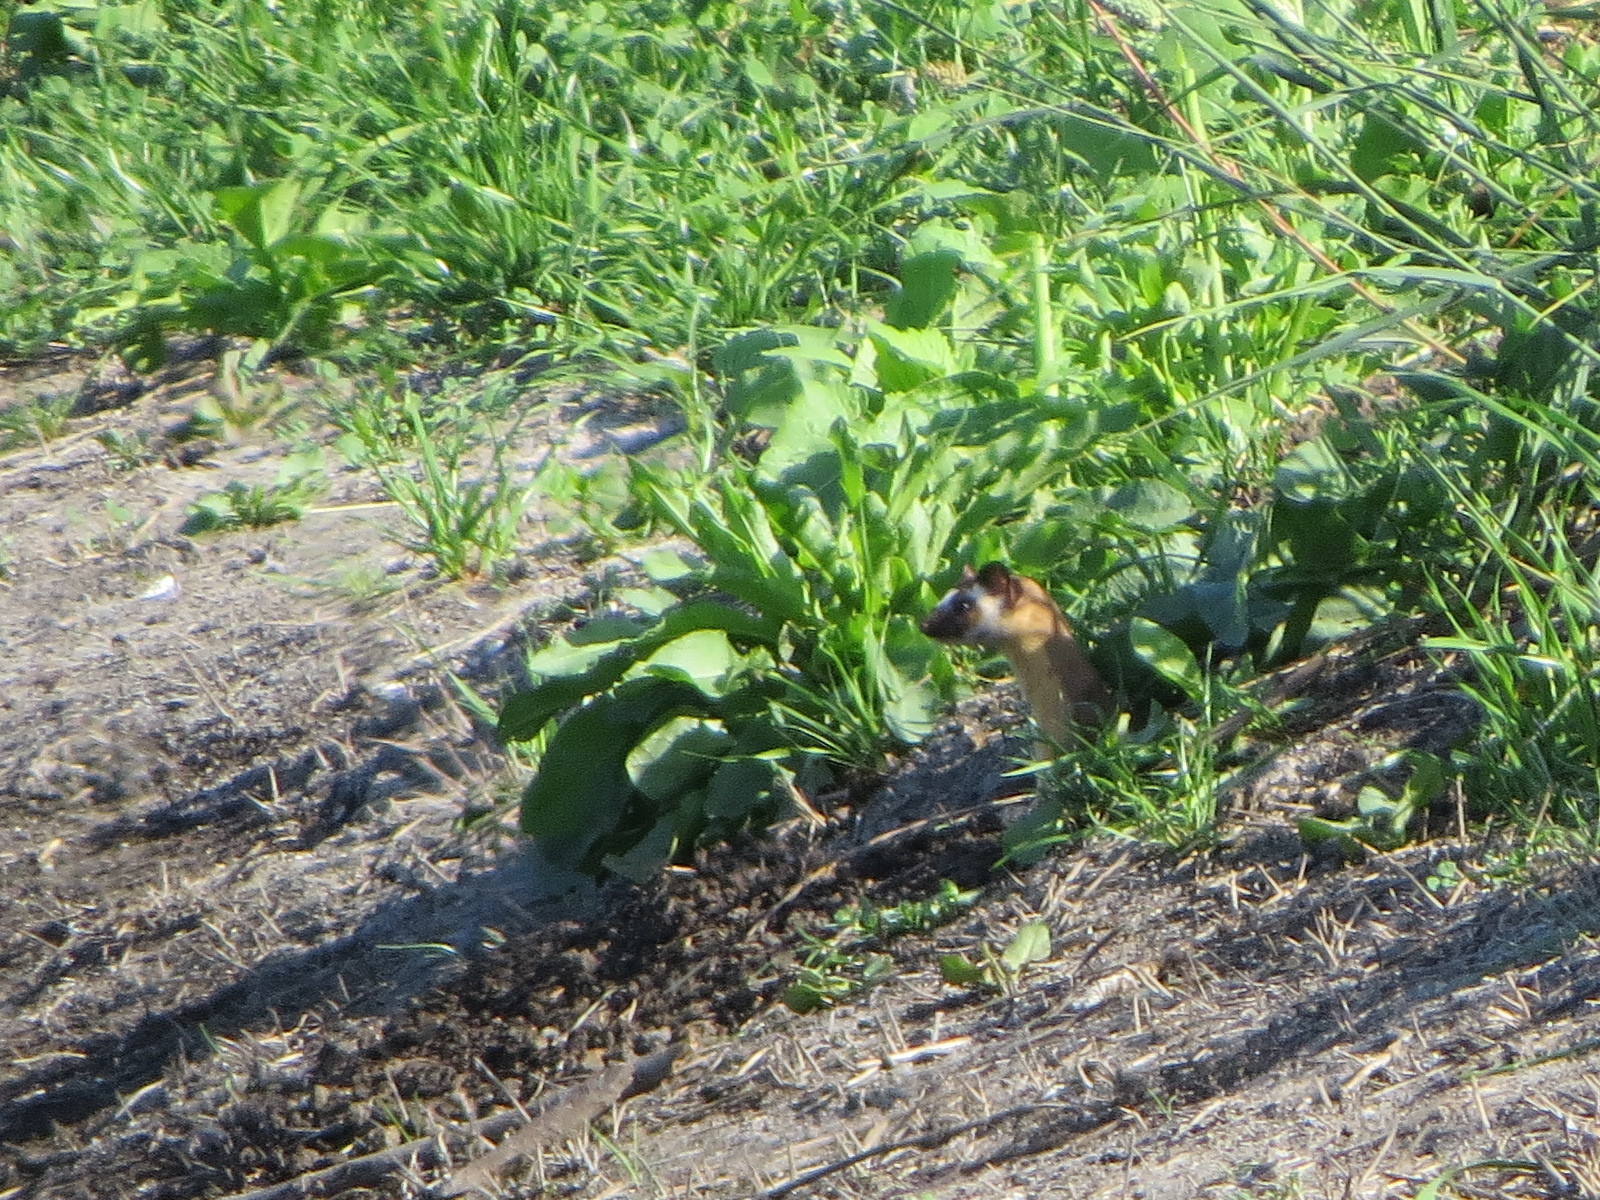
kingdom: Animalia
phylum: Chordata
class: Mammalia
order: Carnivora
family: Mustelidae
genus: Mustela
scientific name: Mustela
